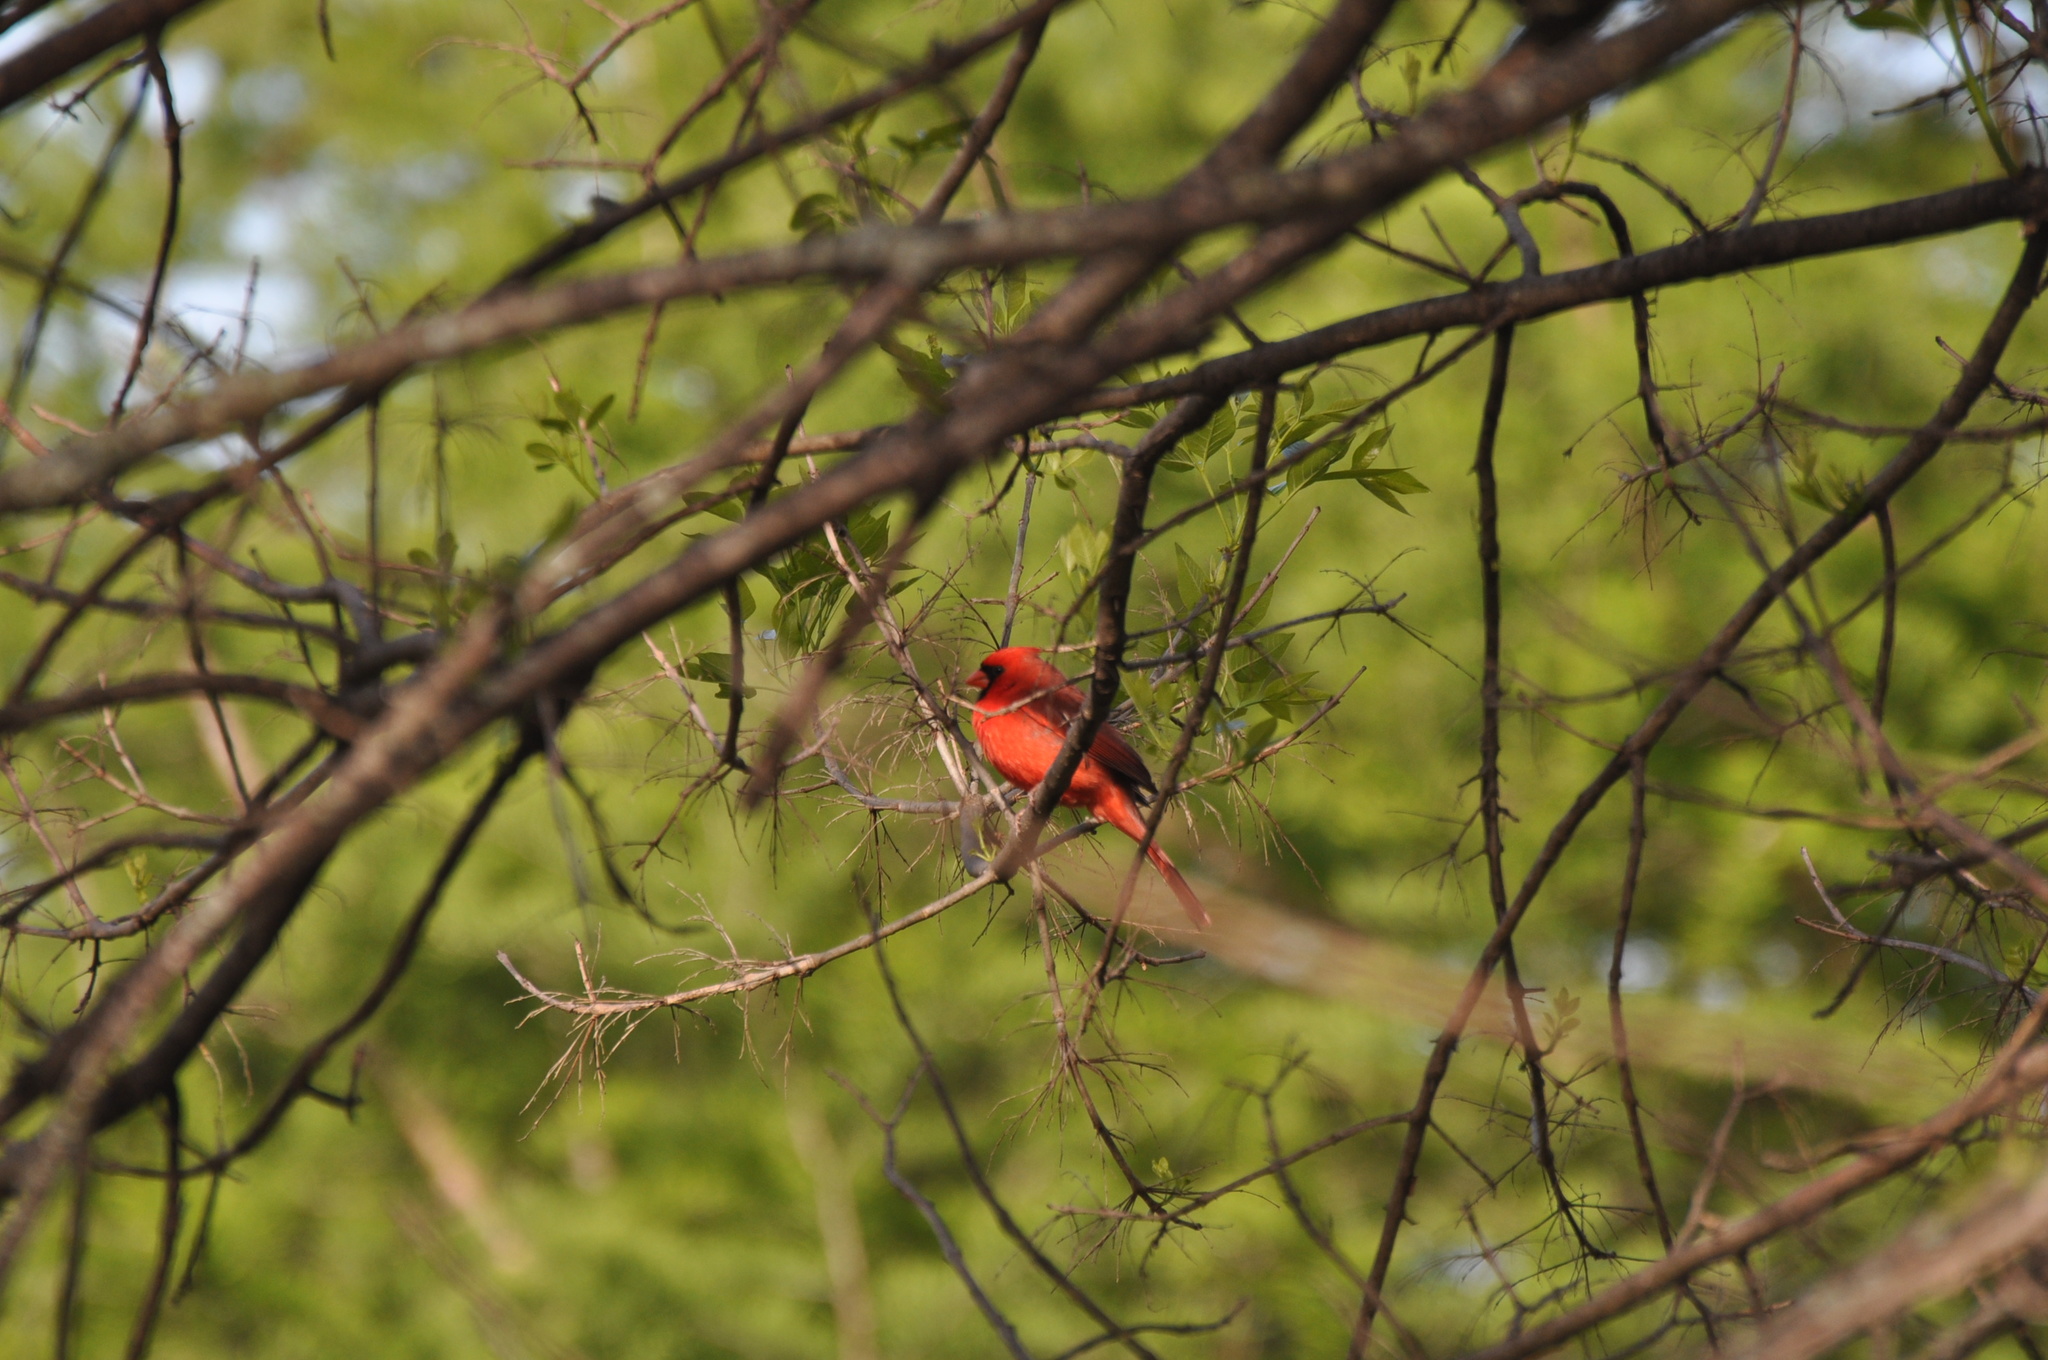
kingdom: Animalia
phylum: Chordata
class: Aves
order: Passeriformes
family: Cardinalidae
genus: Cardinalis
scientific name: Cardinalis cardinalis
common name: Northern cardinal
